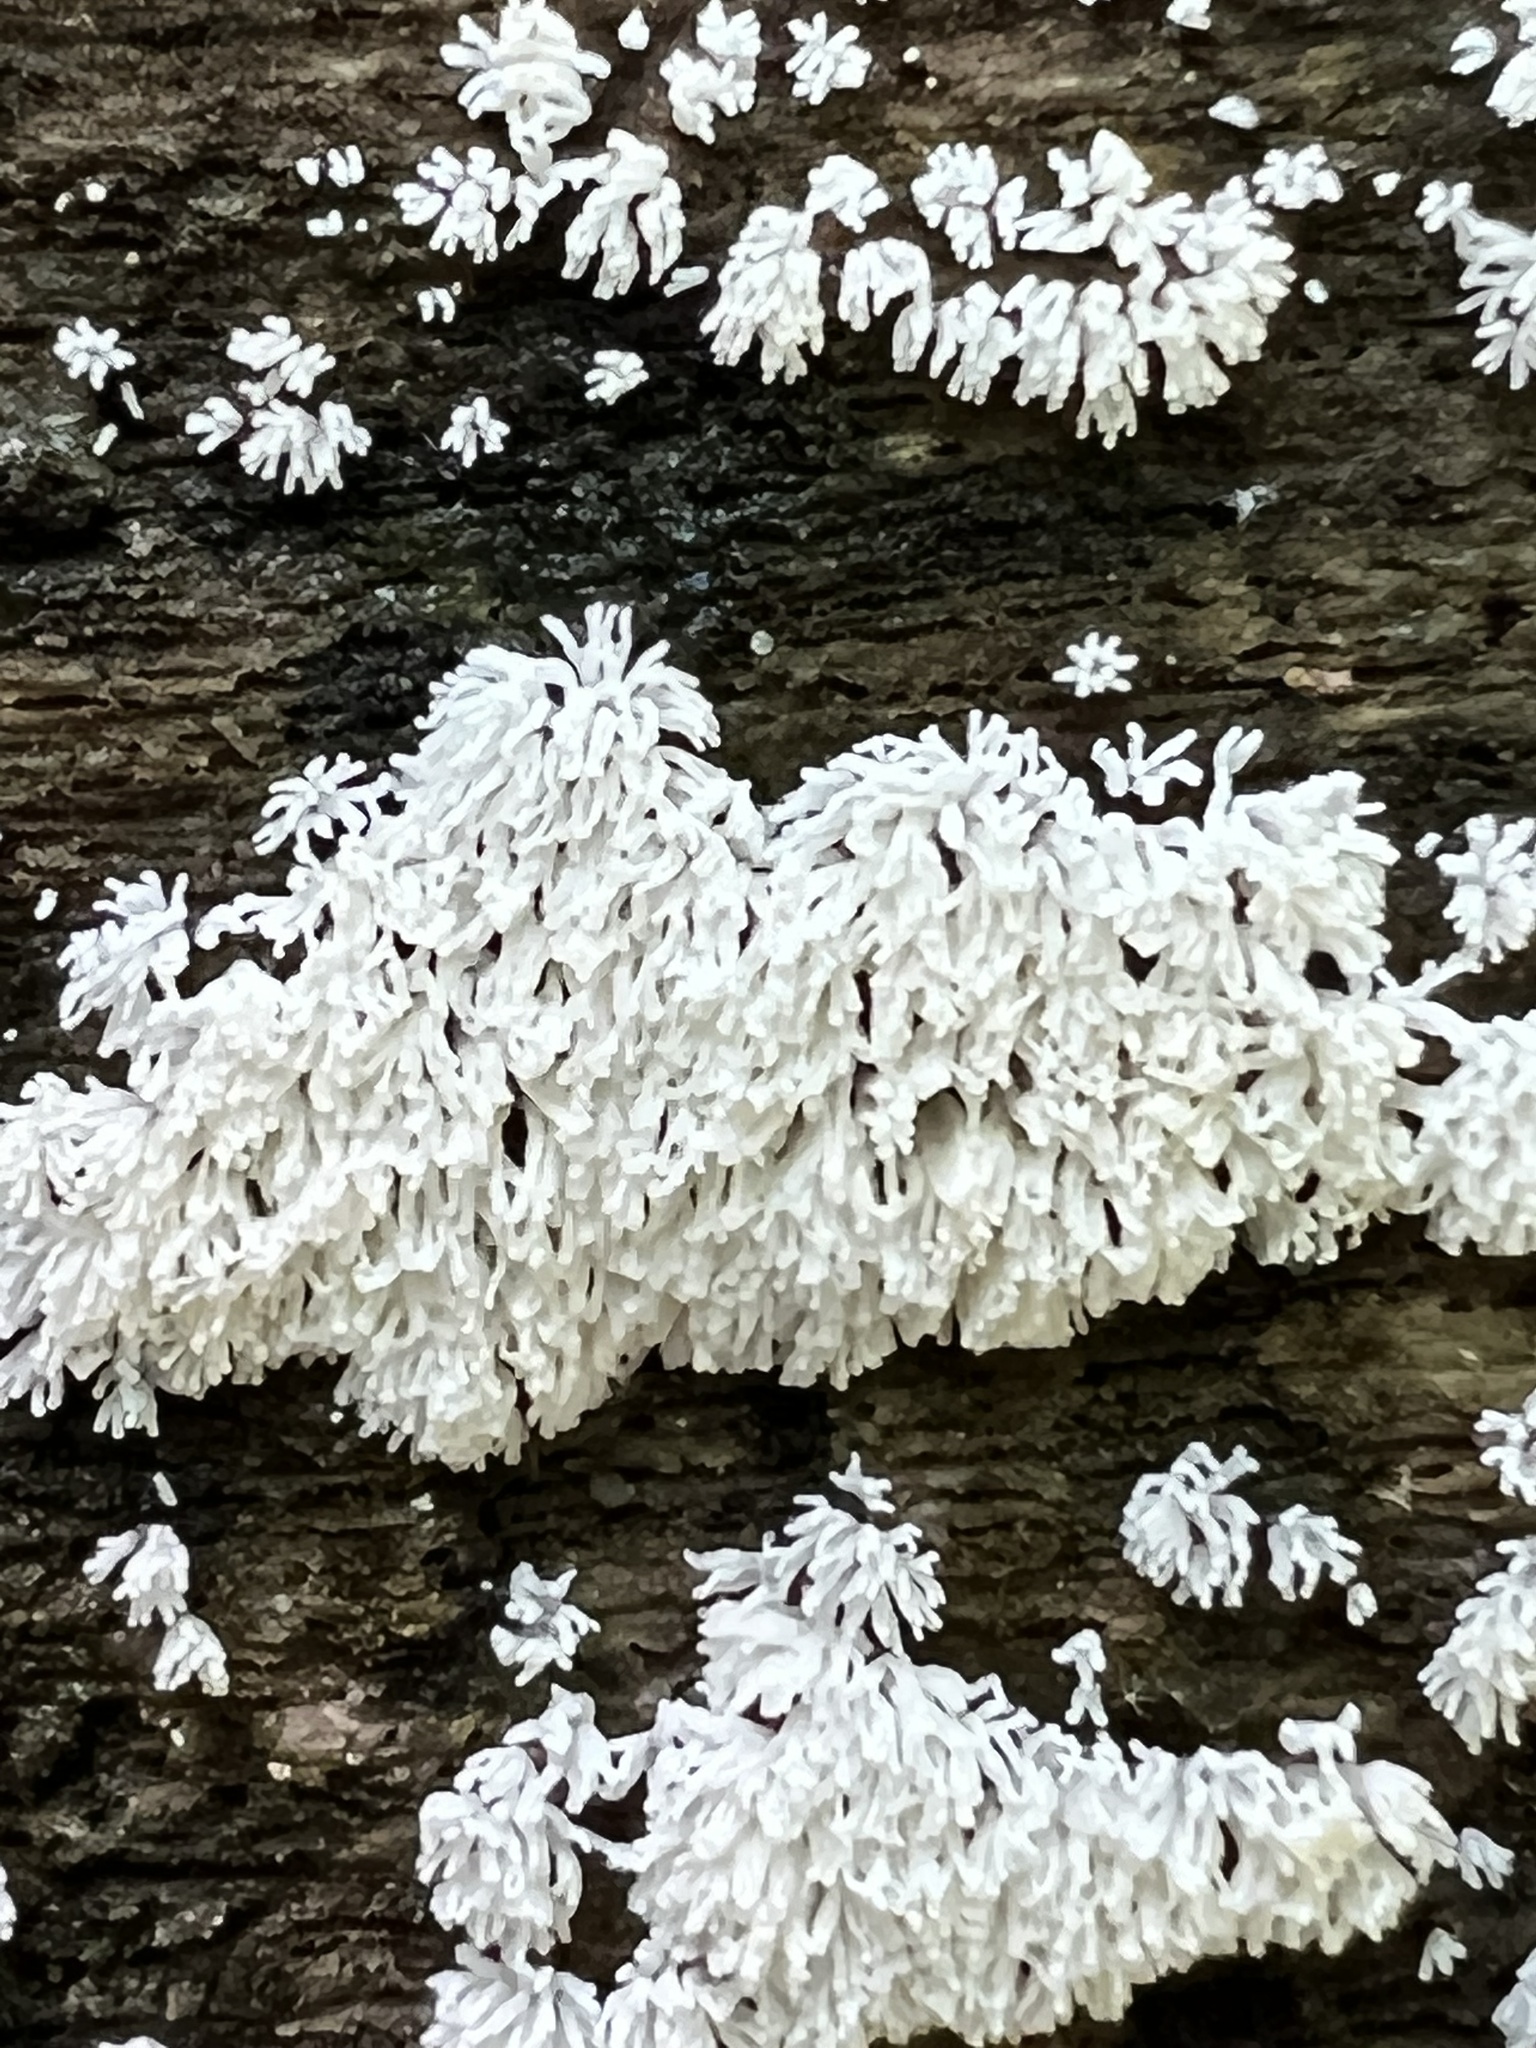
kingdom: Protozoa
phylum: Mycetozoa
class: Protosteliomycetes
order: Ceratiomyxales
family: Ceratiomyxaceae
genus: Ceratiomyxa
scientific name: Ceratiomyxa fruticulosa
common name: Honeycomb coral slime mold
